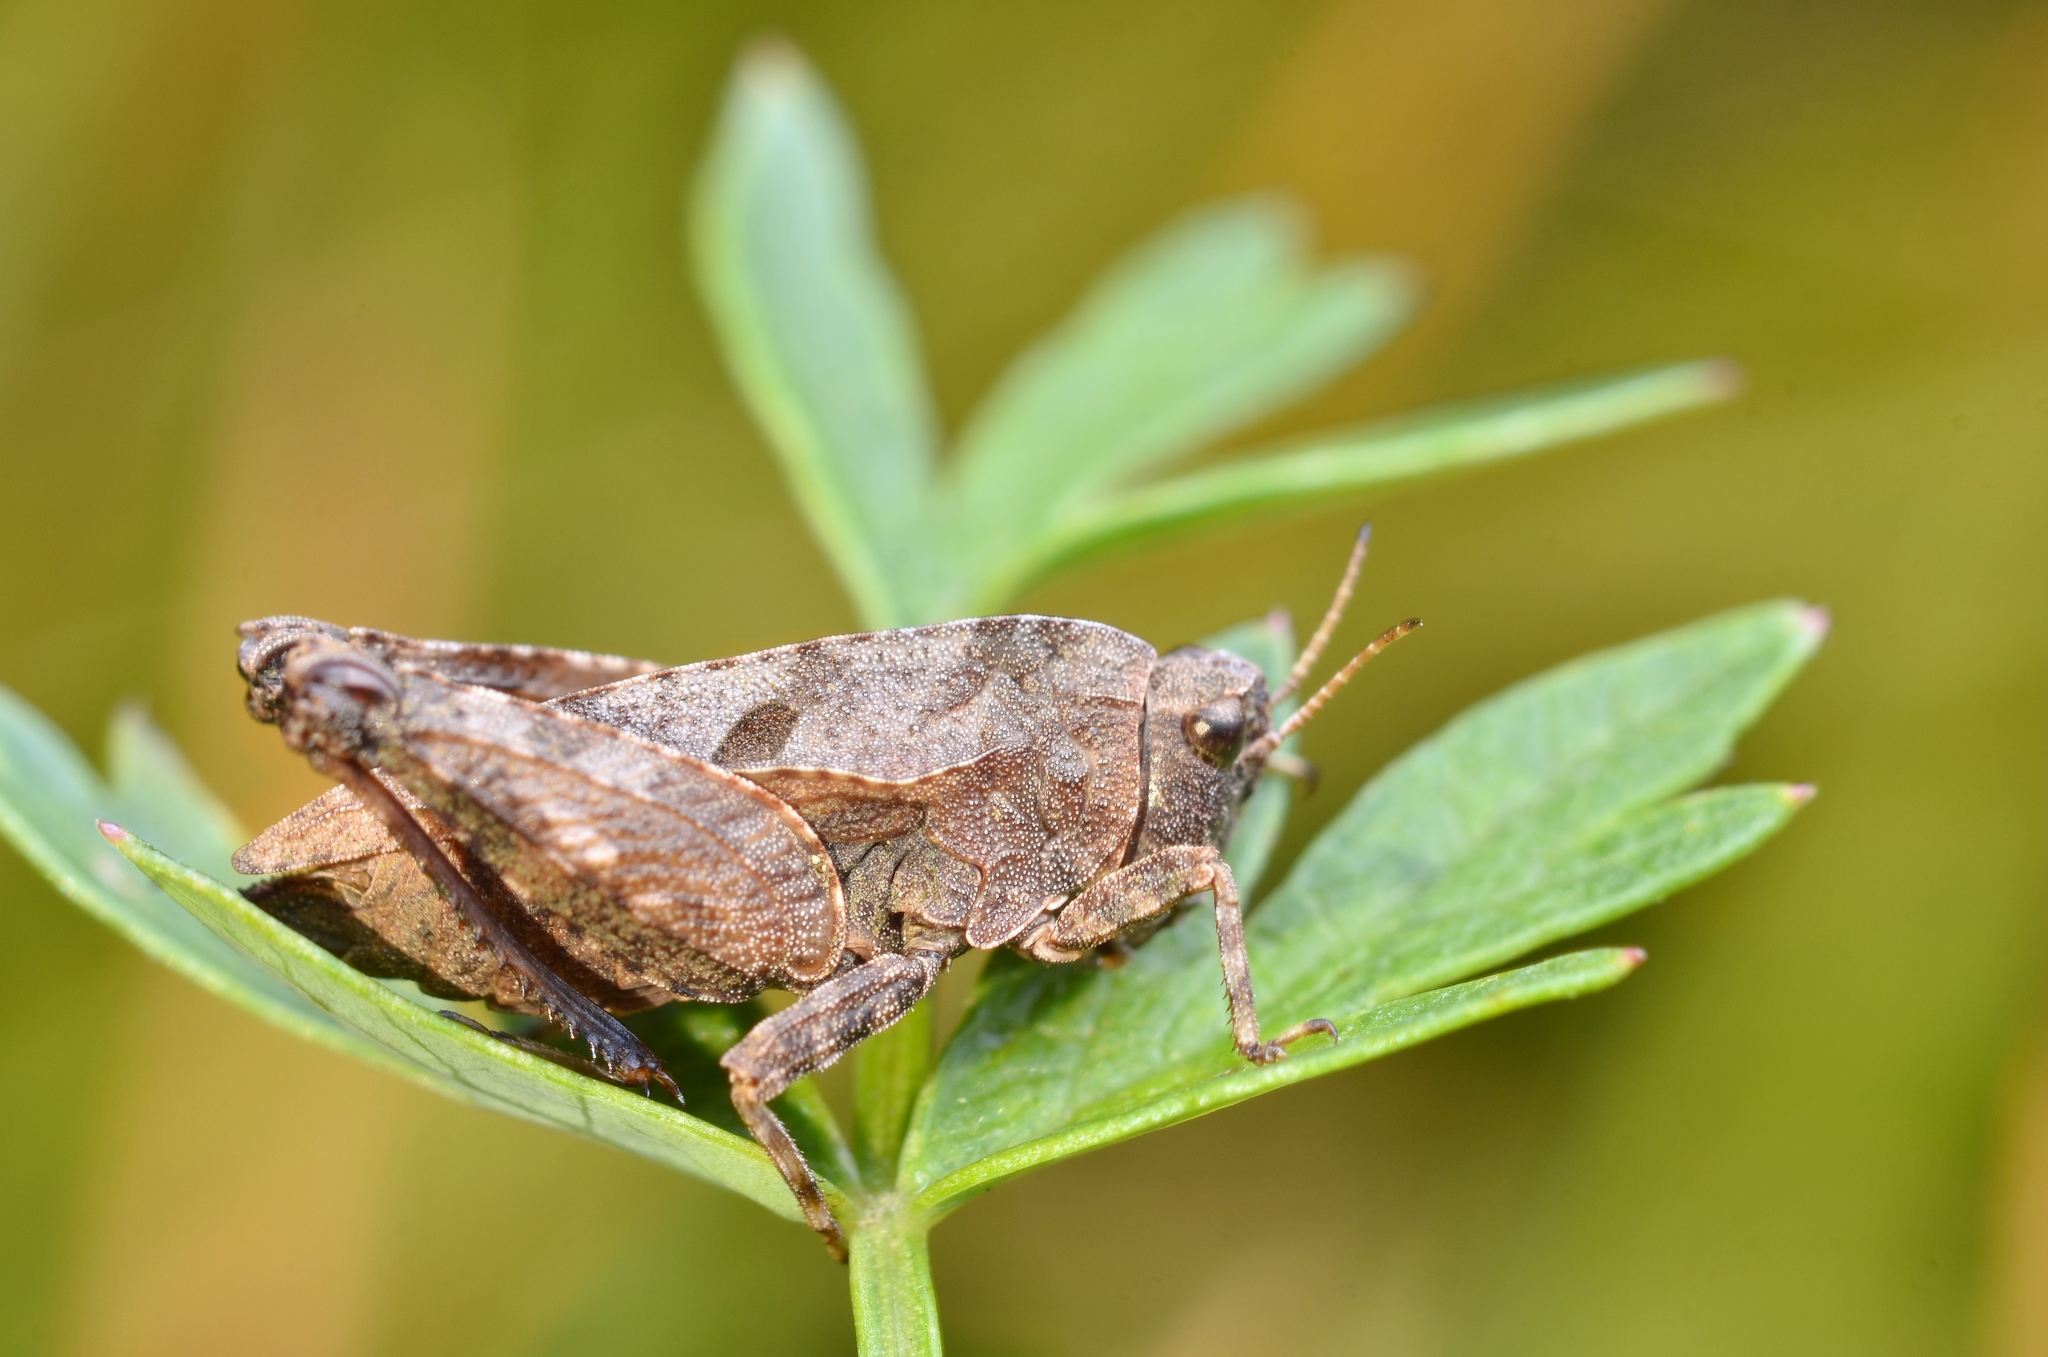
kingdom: Animalia
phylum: Arthropoda
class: Insecta
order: Orthoptera
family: Tetrigidae
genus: Tetrix
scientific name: Tetrix bipunctata
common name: Two-spotted groundhopper
